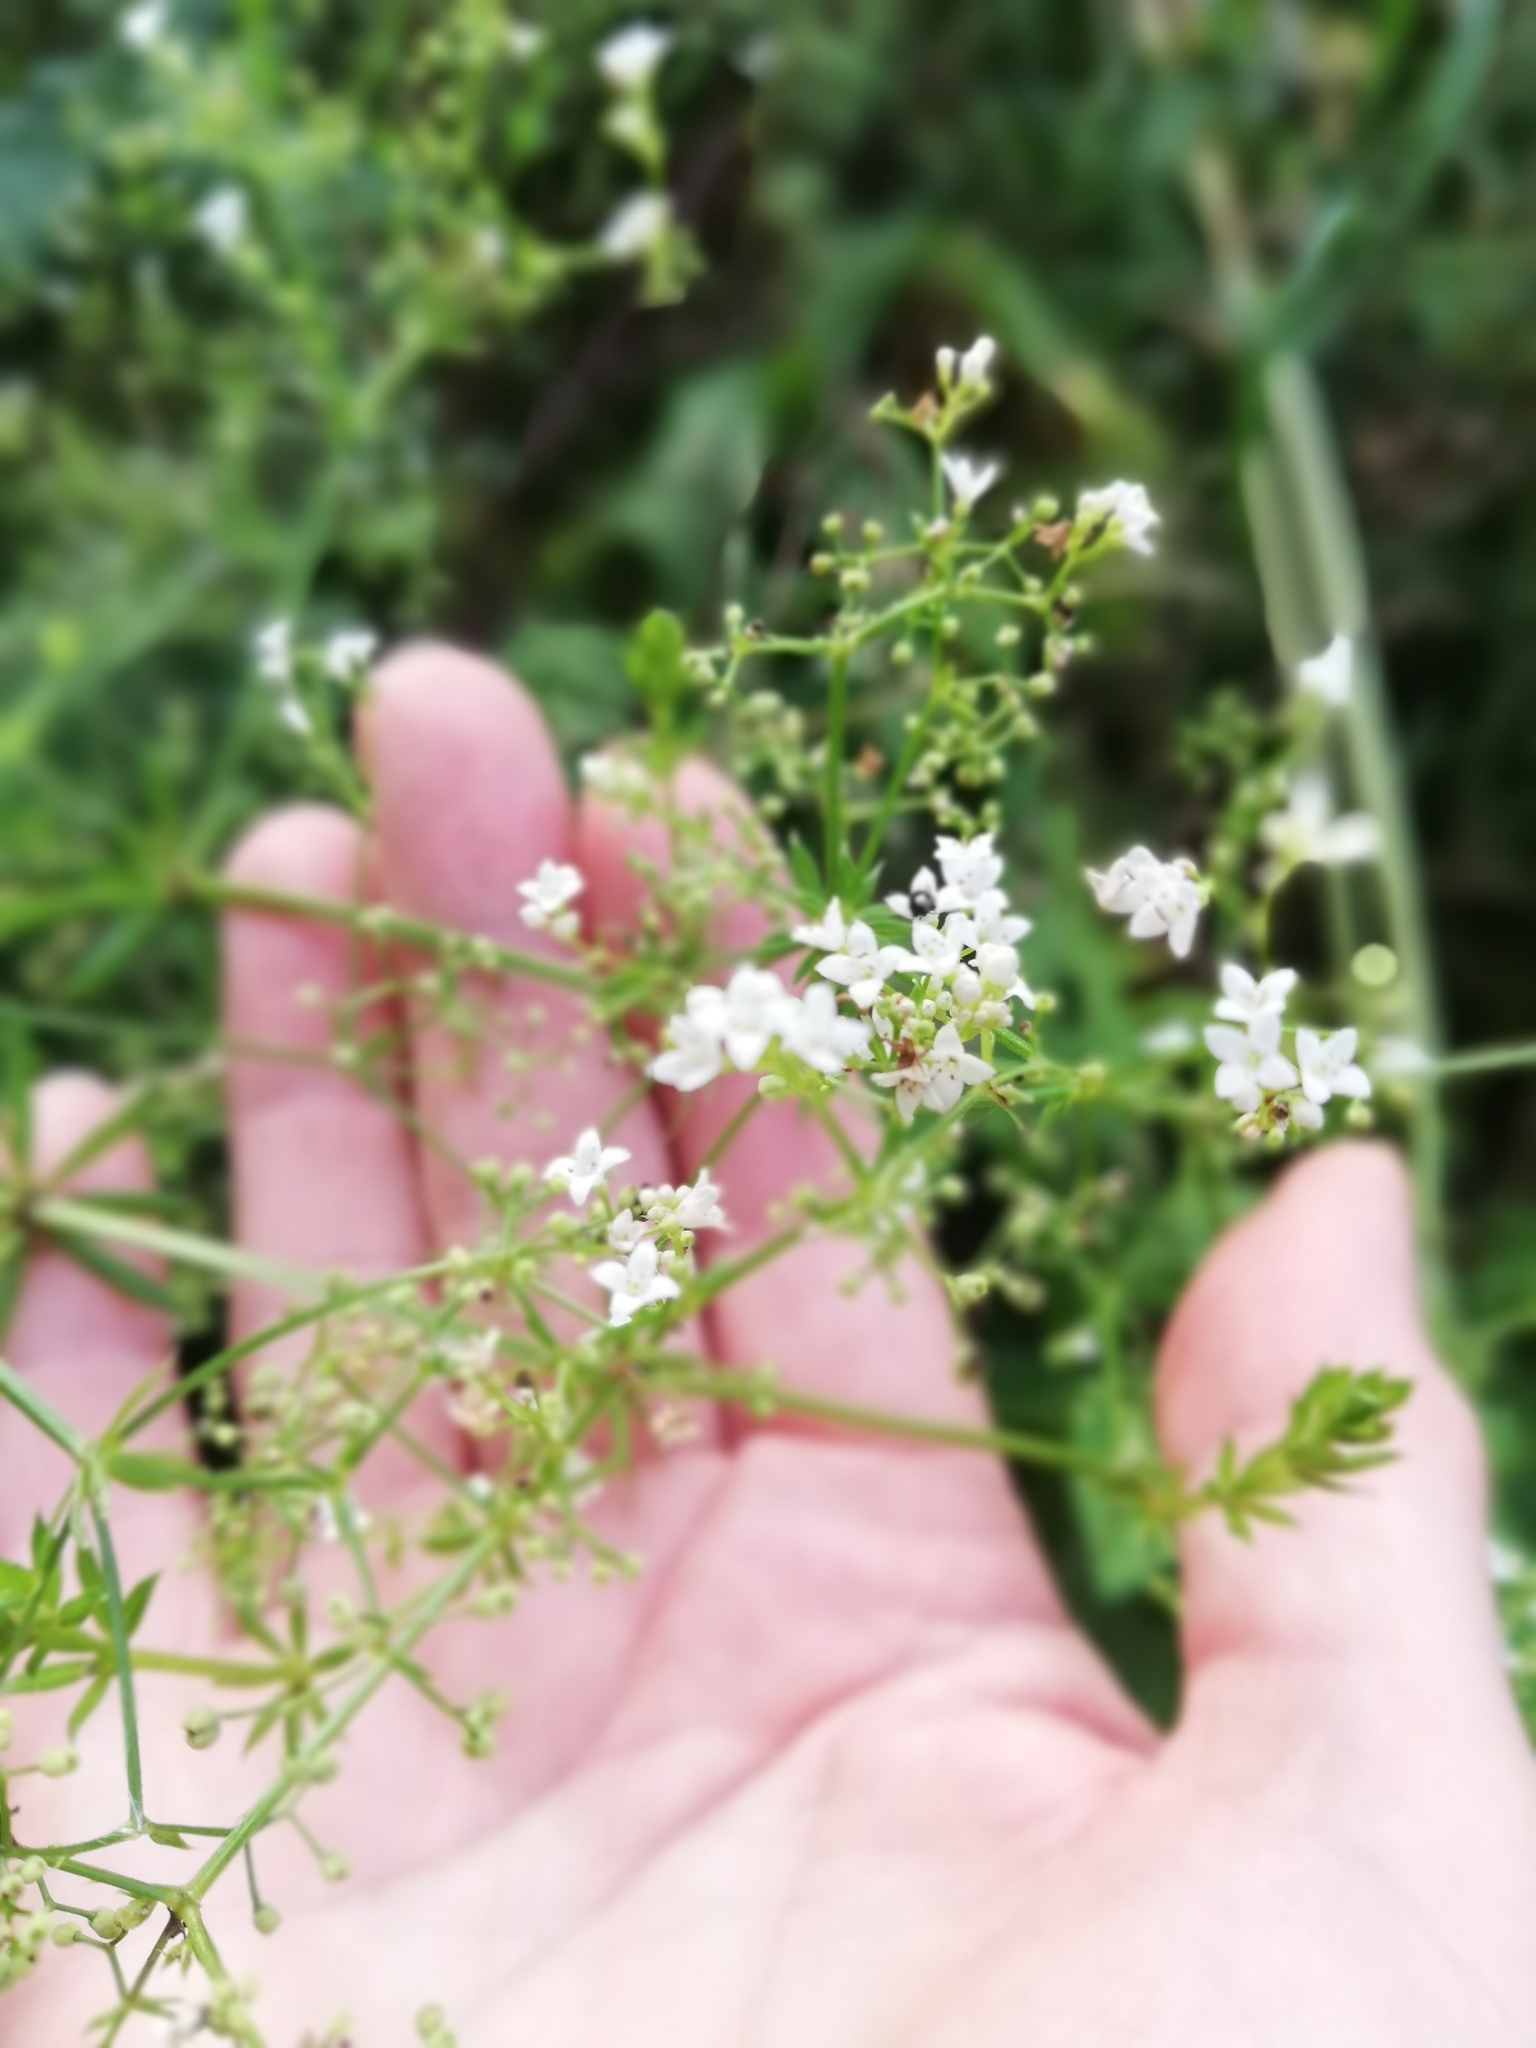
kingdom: Plantae
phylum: Tracheophyta
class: Magnoliopsida
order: Gentianales
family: Rubiaceae
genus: Galium
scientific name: Galium rivale
